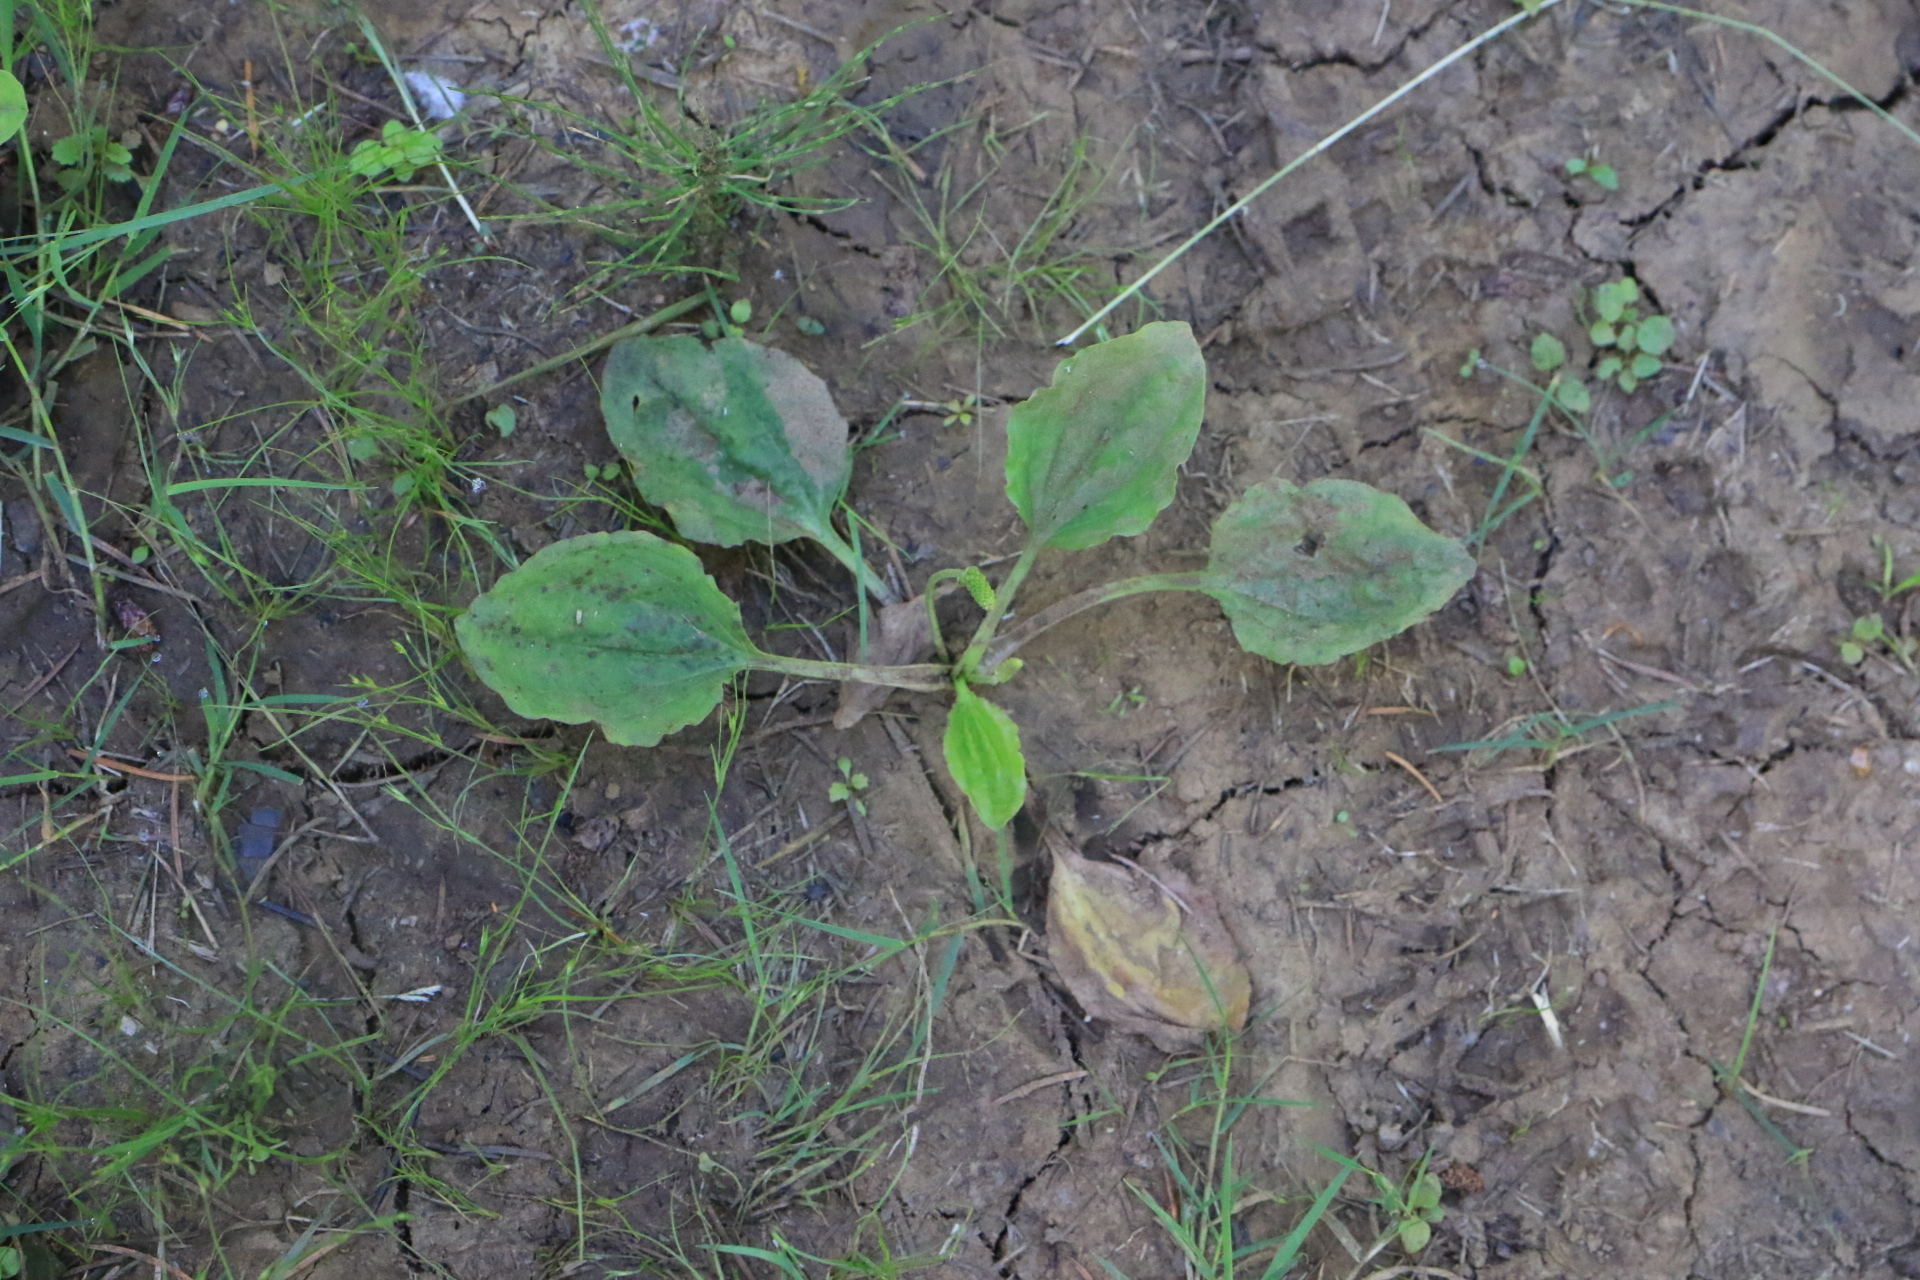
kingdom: Plantae
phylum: Tracheophyta
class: Magnoliopsida
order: Lamiales
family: Plantaginaceae
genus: Plantago
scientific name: Plantago major
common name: Common plantain
